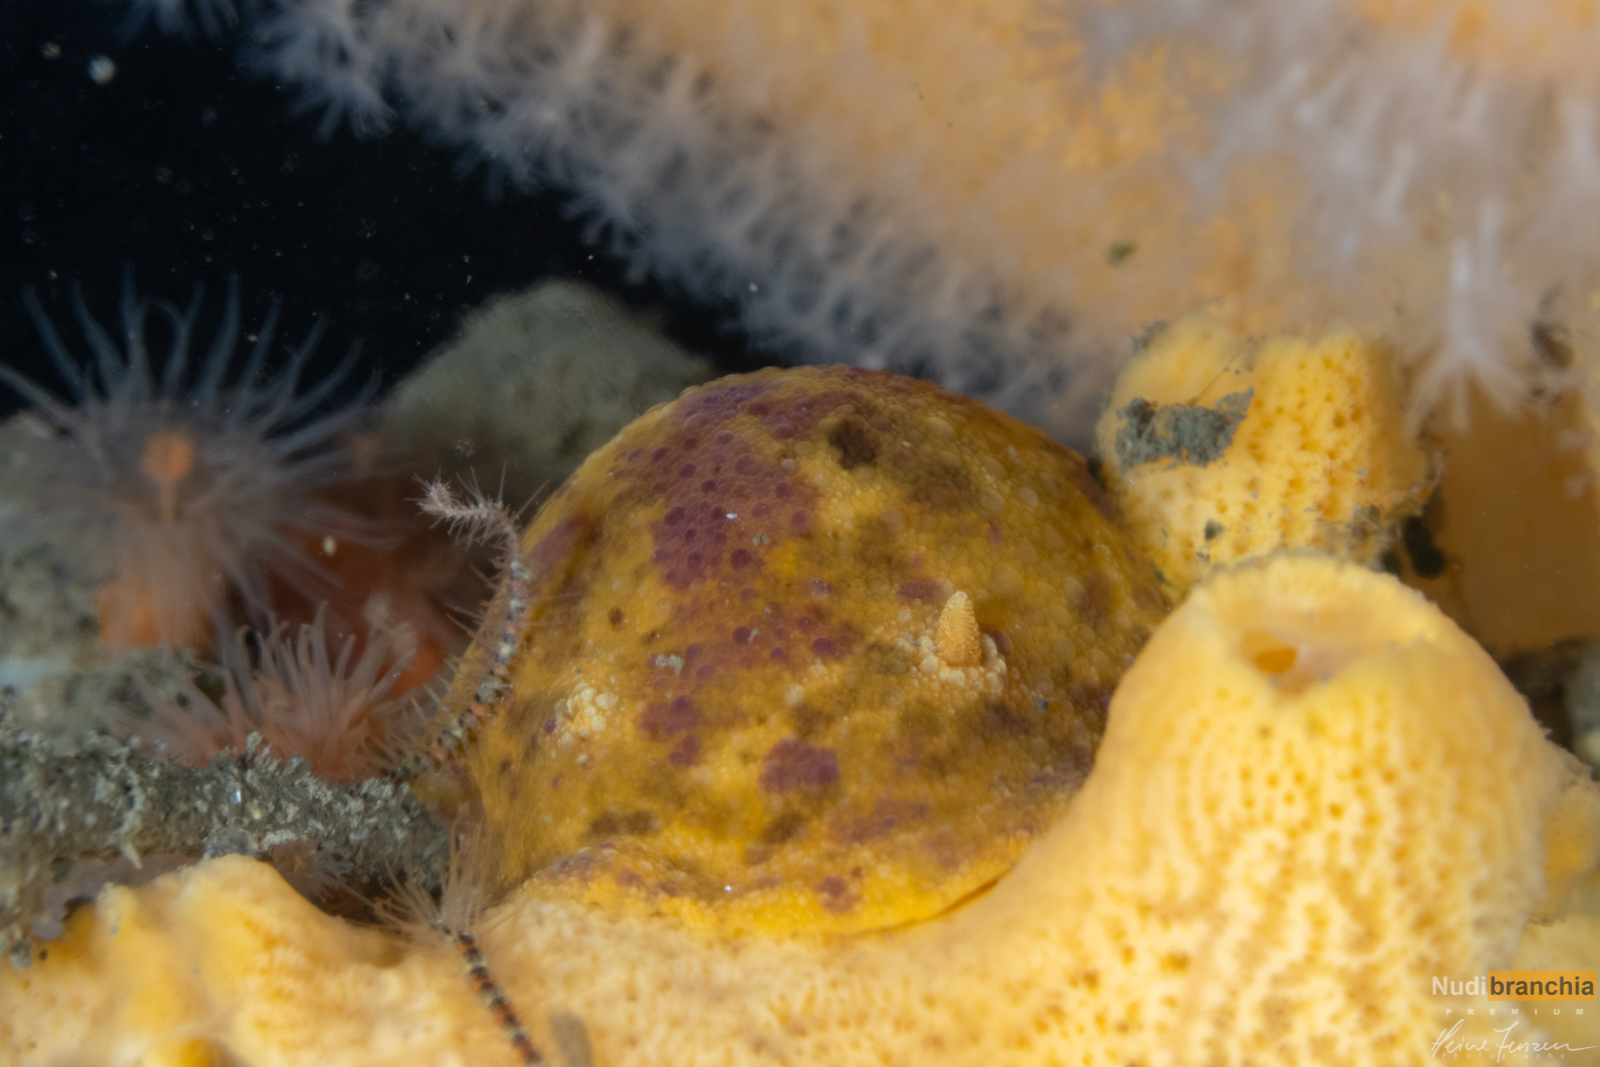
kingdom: Animalia
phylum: Mollusca
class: Gastropoda
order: Nudibranchia
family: Dorididae
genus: Doris
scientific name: Doris pseudoargus
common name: Sea lemon
